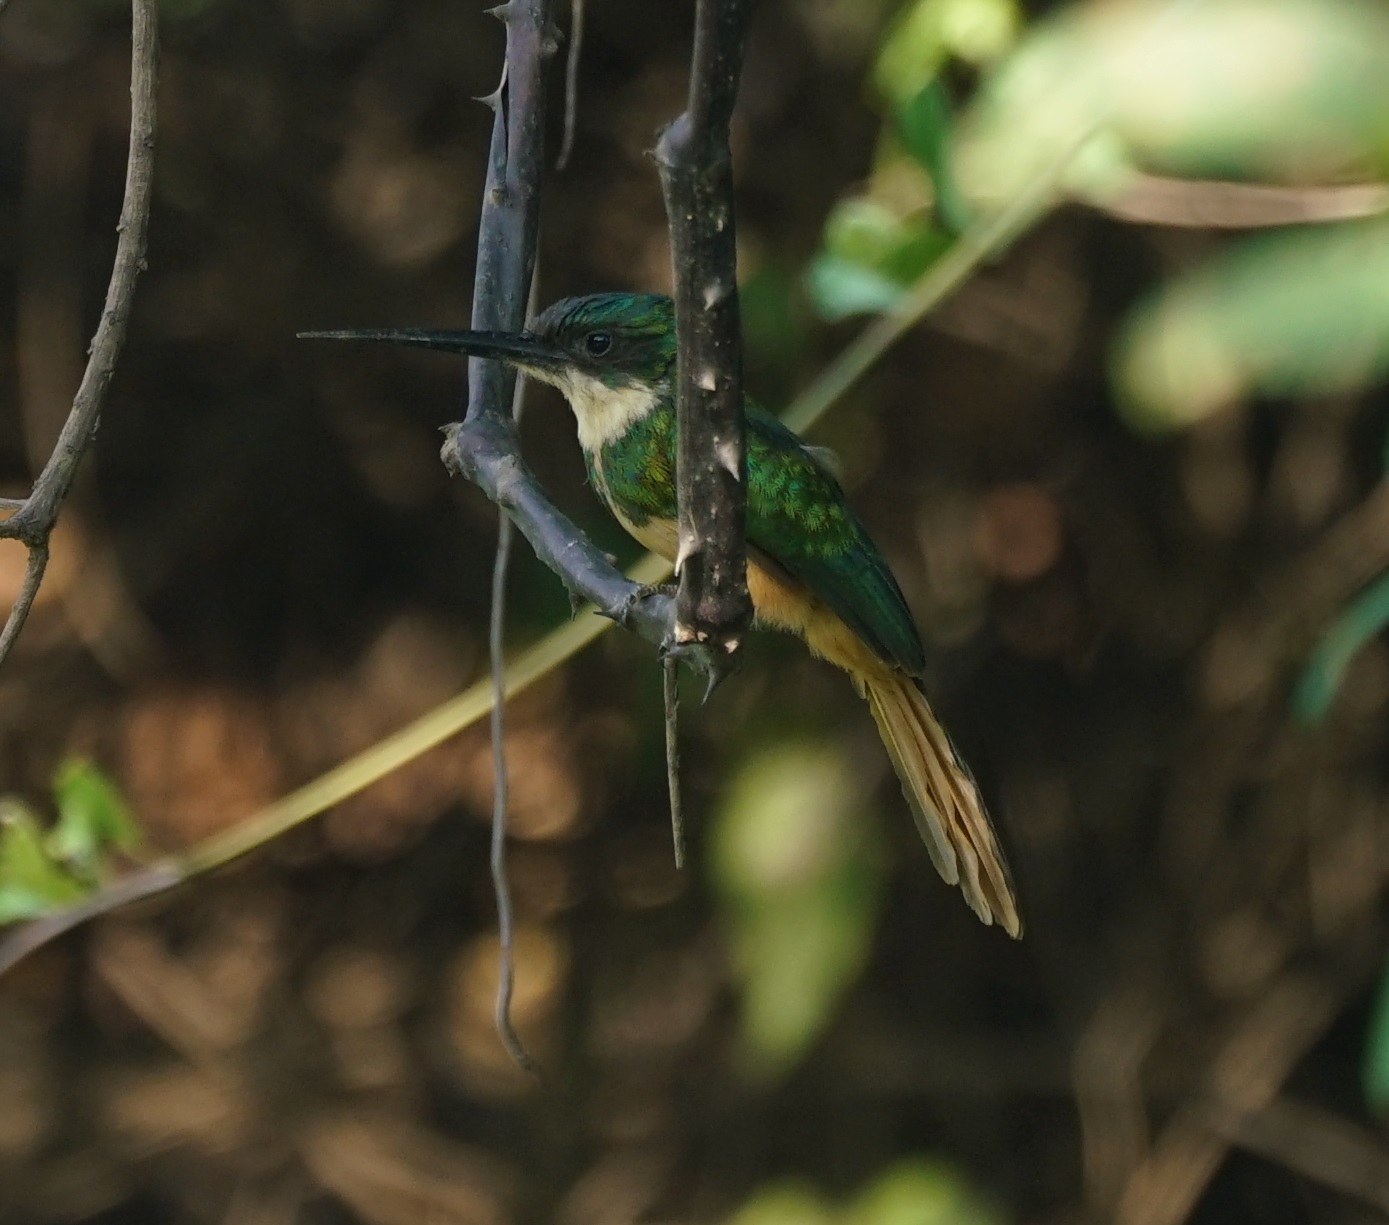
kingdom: Animalia
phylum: Chordata
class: Aves
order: Piciformes
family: Galbulidae
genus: Galbula
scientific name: Galbula ruficauda
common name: Rufous-tailed jacamar
